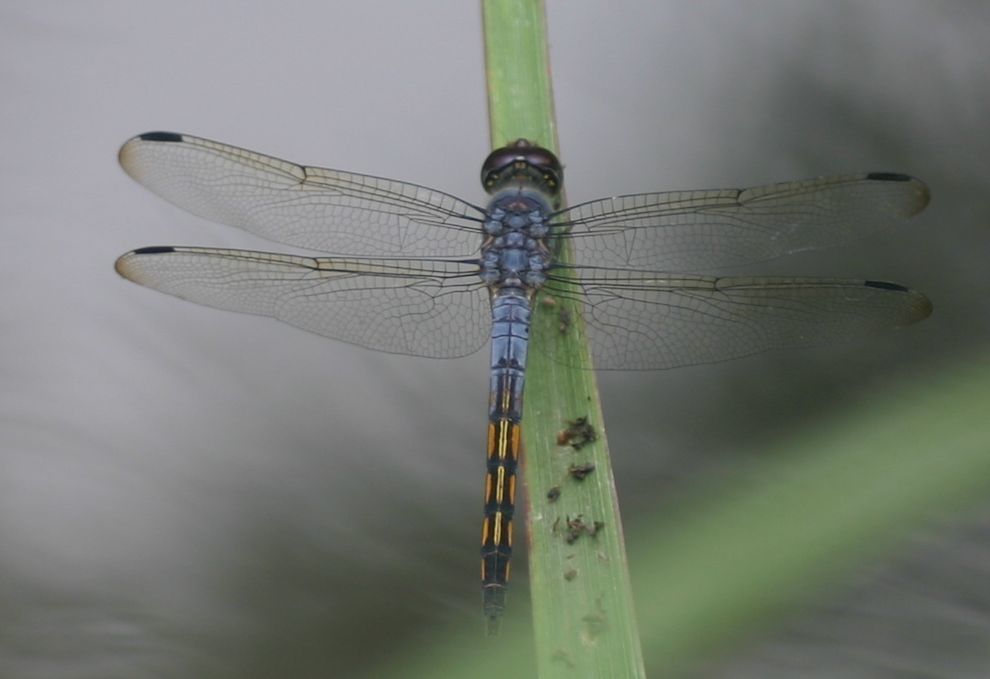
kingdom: Animalia
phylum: Arthropoda
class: Insecta
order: Odonata
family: Libellulidae
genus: Potamarcha
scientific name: Potamarcha congener
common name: Blue chaser
